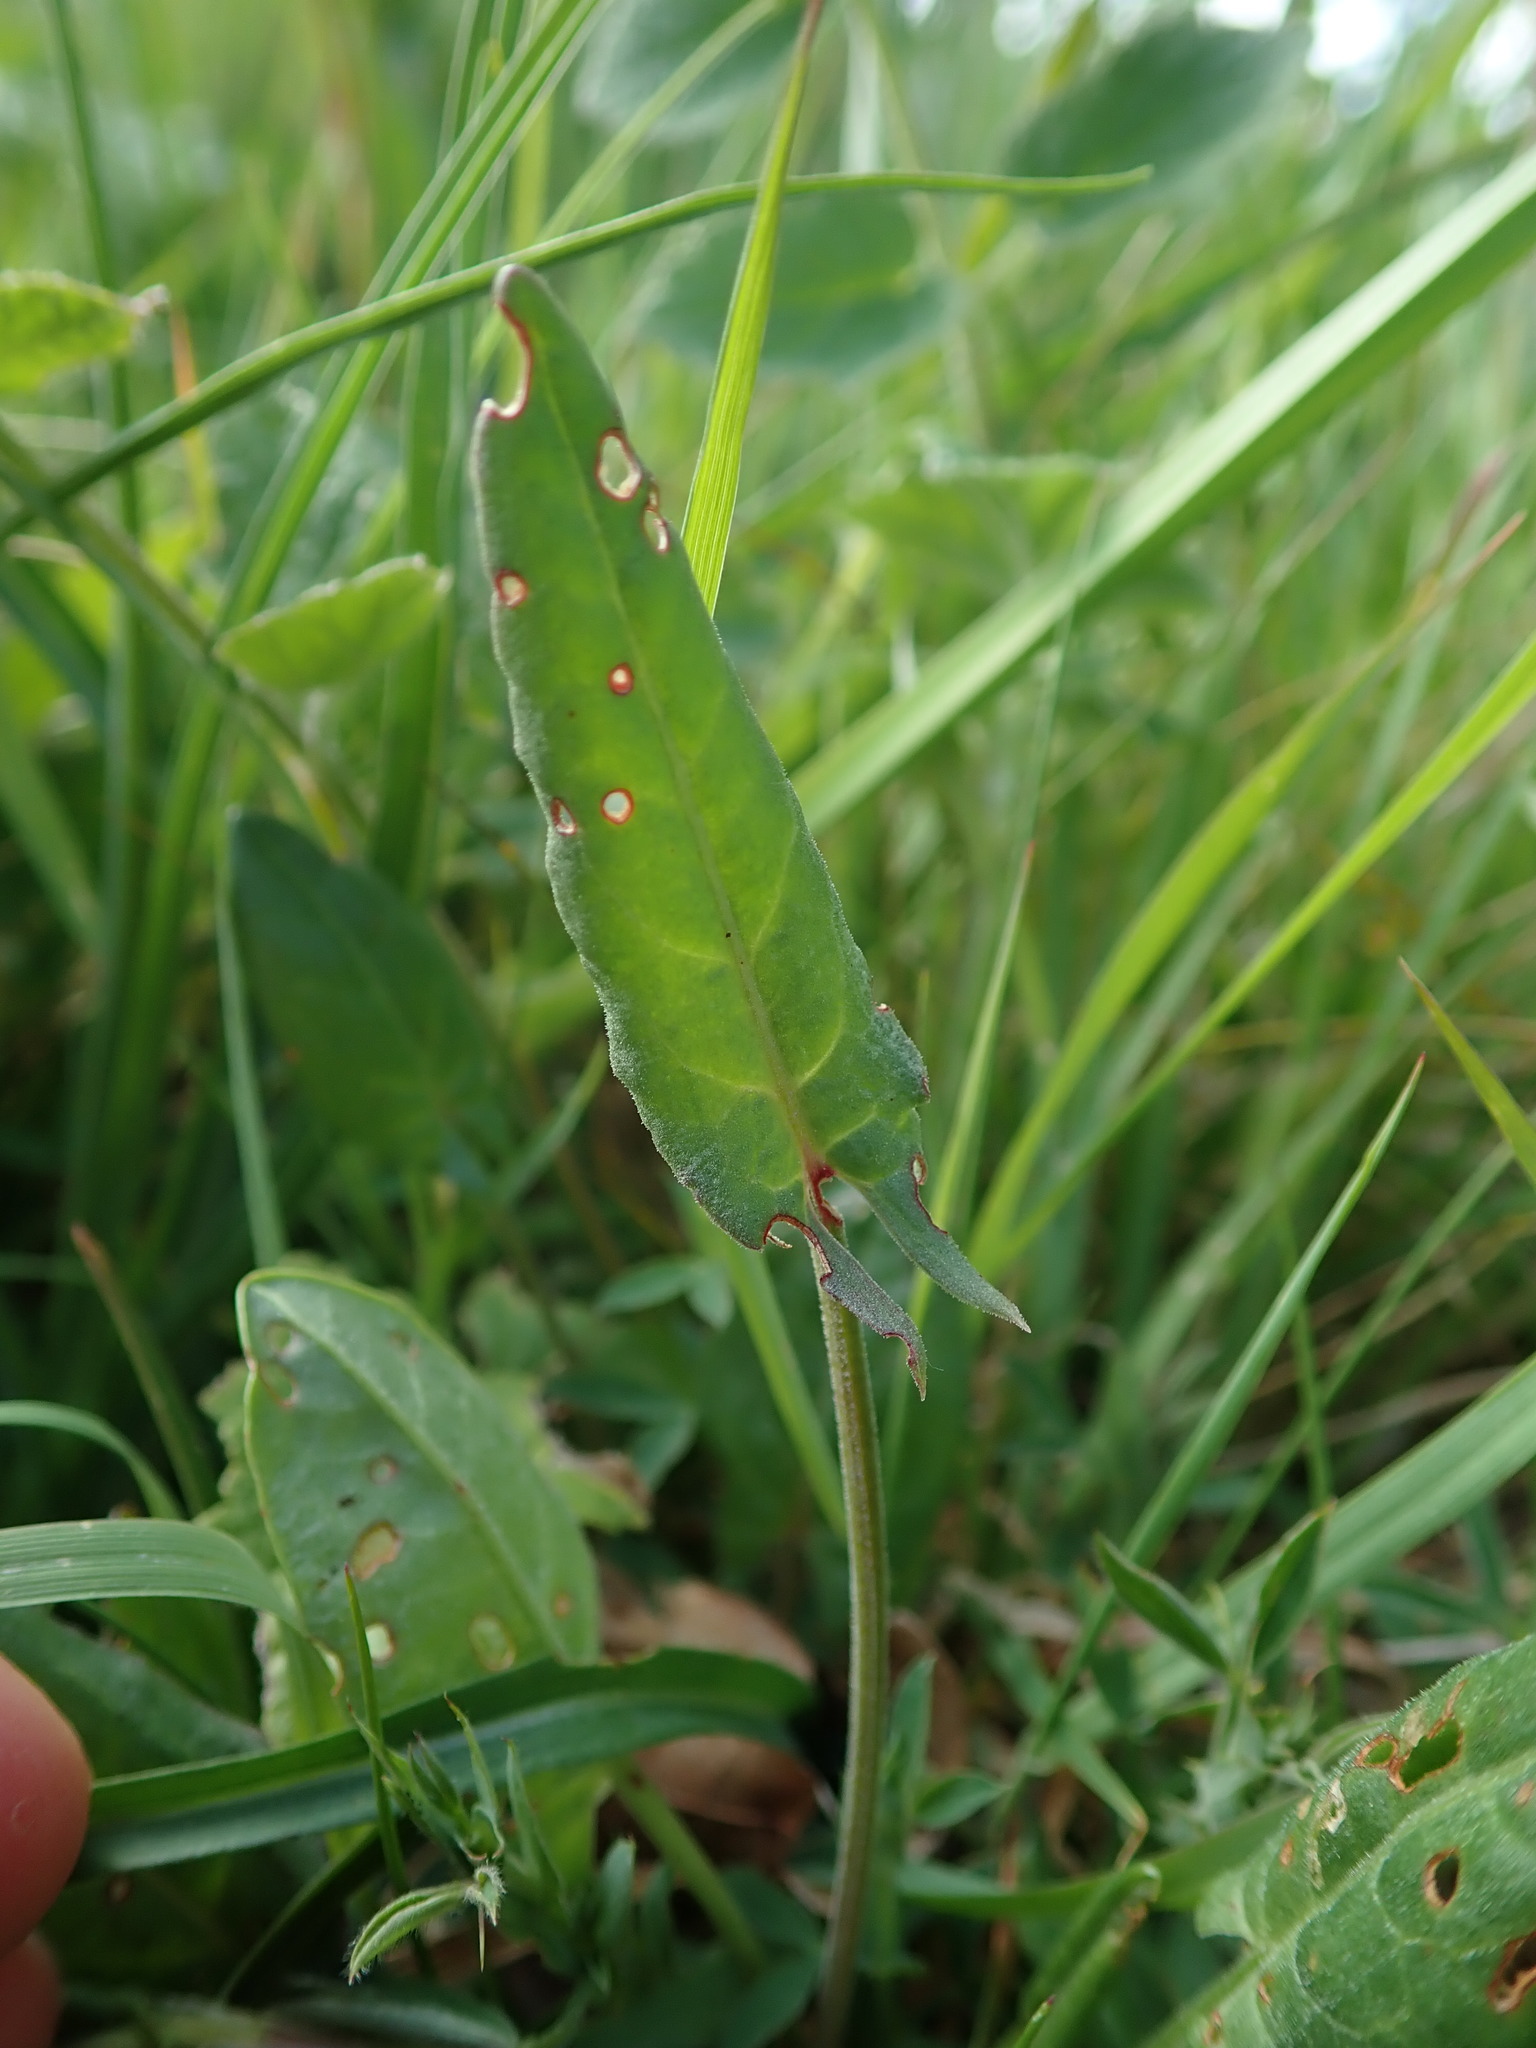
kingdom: Plantae
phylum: Tracheophyta
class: Magnoliopsida
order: Caryophyllales
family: Polygonaceae
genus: Rumex
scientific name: Rumex acetosa
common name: Garden sorrel
